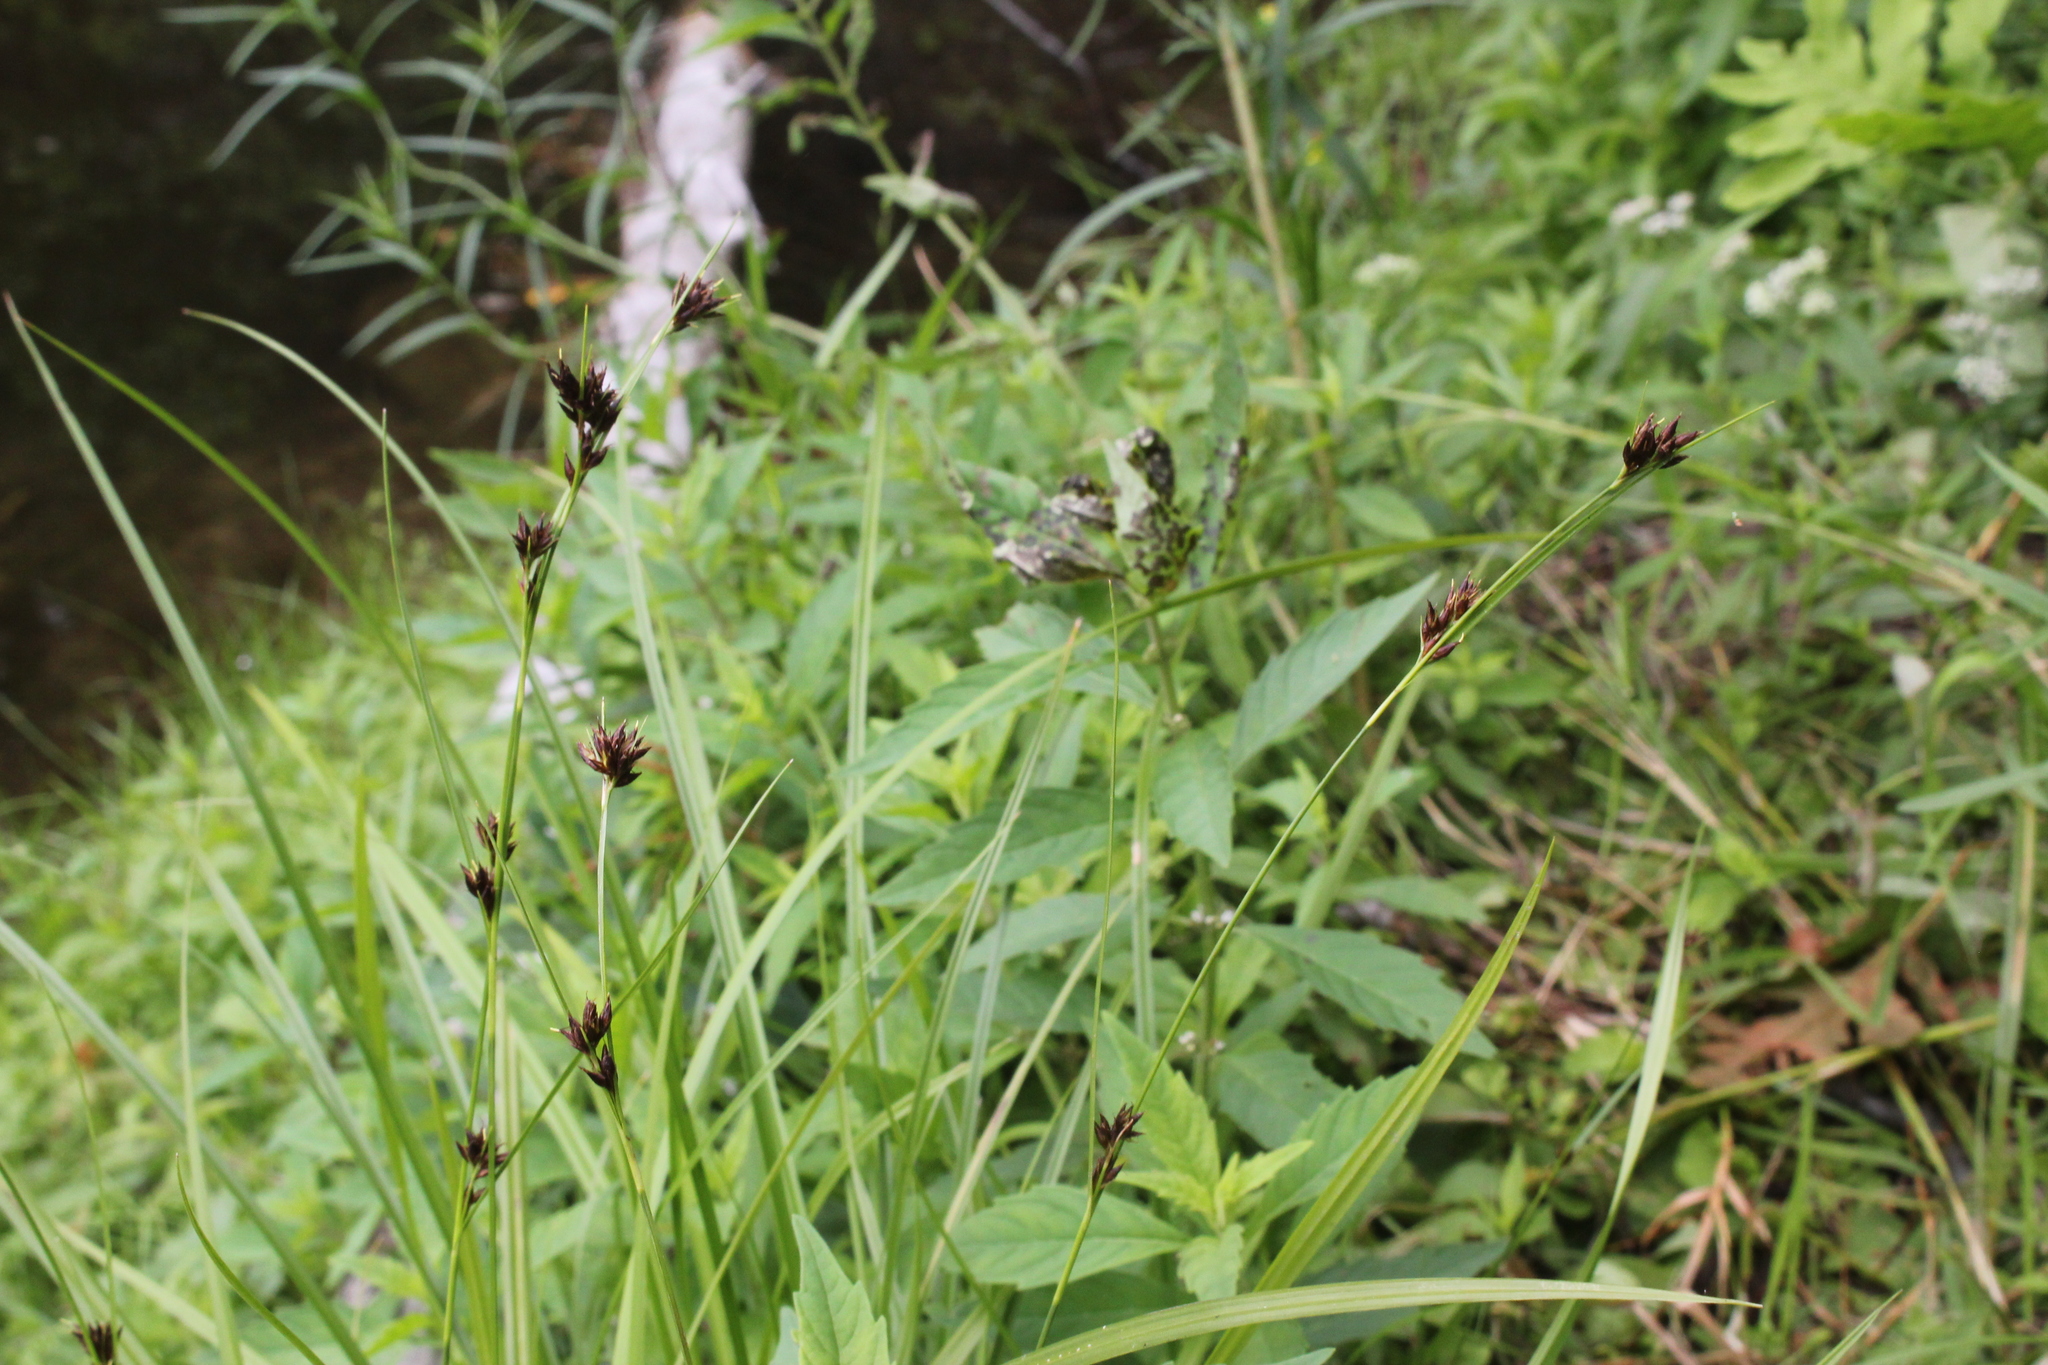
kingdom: Plantae
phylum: Tracheophyta
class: Liliopsida
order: Poales
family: Cyperaceae
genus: Rhynchospora
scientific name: Rhynchospora capitellata
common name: Brownish beaksedge
